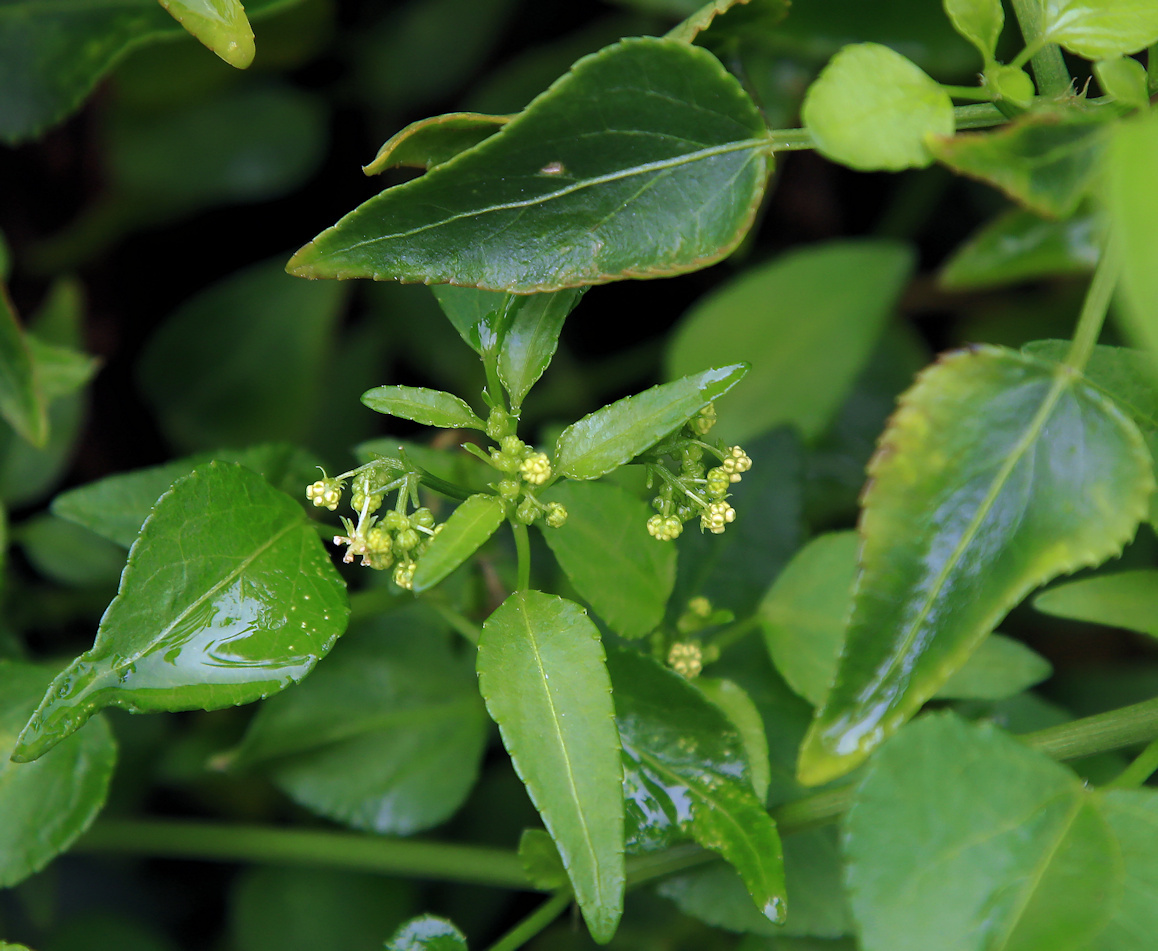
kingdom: Plantae
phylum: Tracheophyta
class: Magnoliopsida
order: Malpighiales
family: Euphorbiaceae
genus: Adenocline
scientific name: Adenocline acuta
